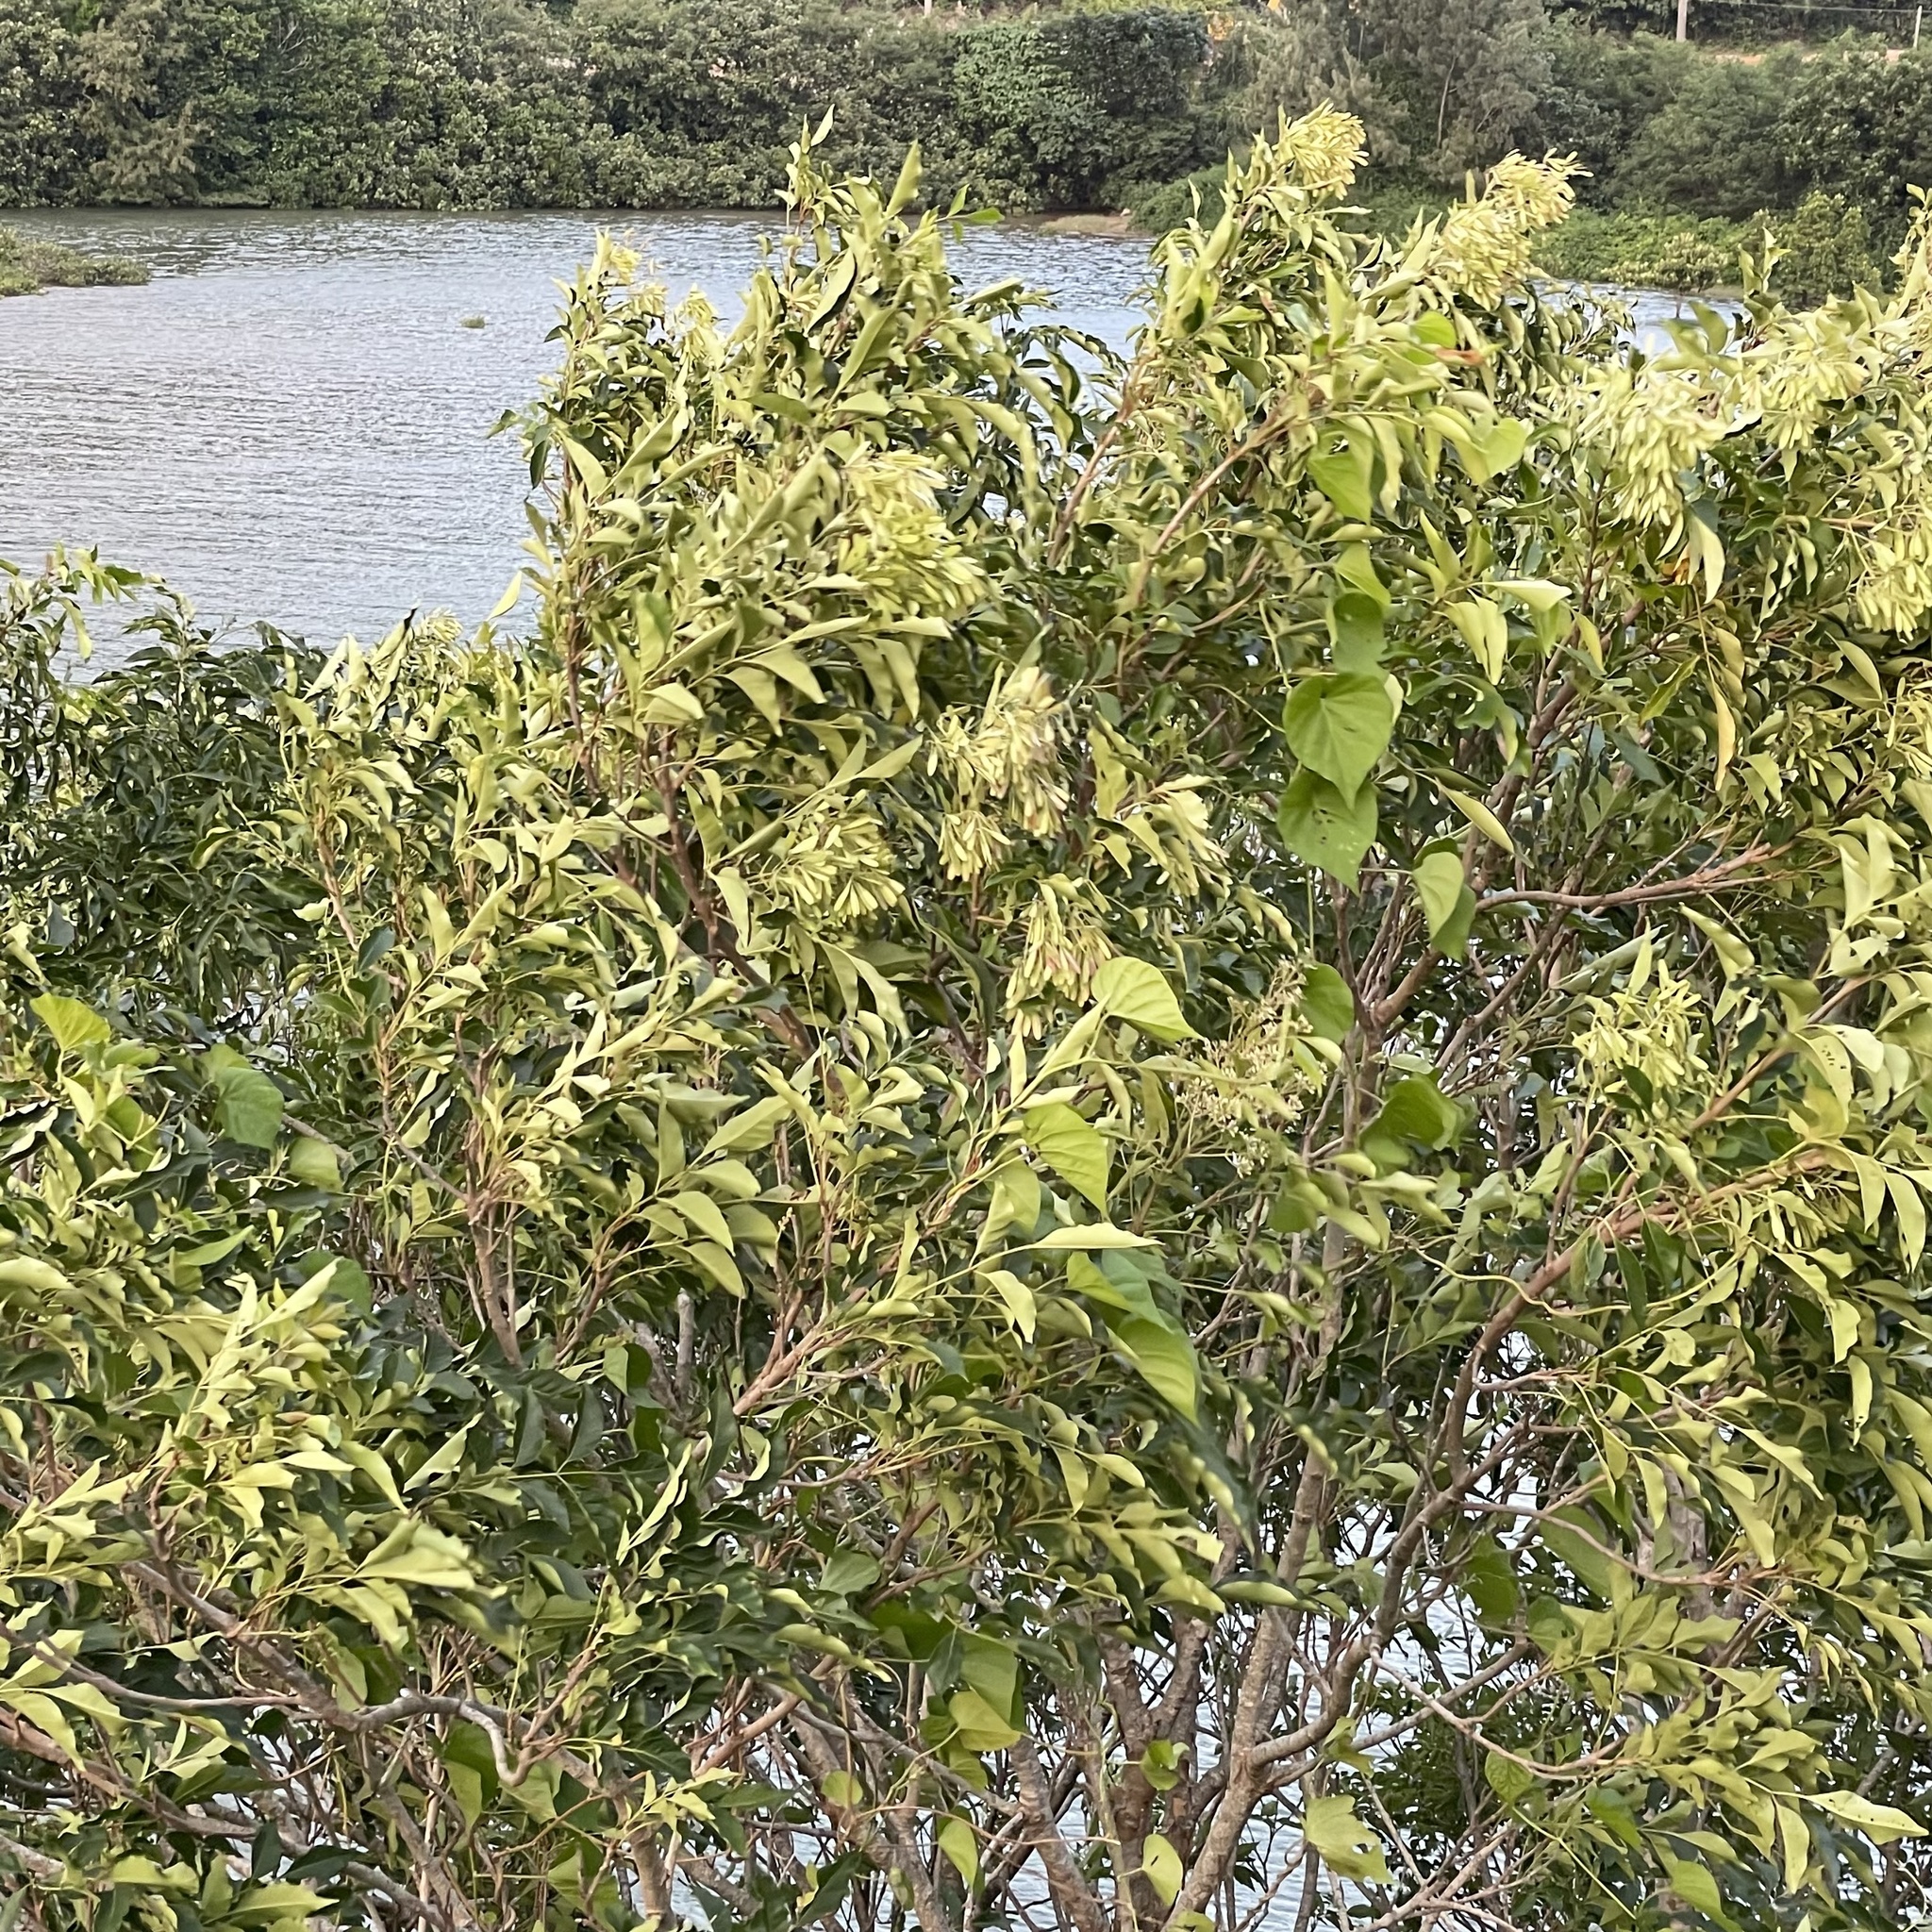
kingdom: Plantae
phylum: Tracheophyta
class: Magnoliopsida
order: Lamiales
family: Oleaceae
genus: Fraxinus
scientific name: Fraxinus griffithii
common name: Himalayan ash
